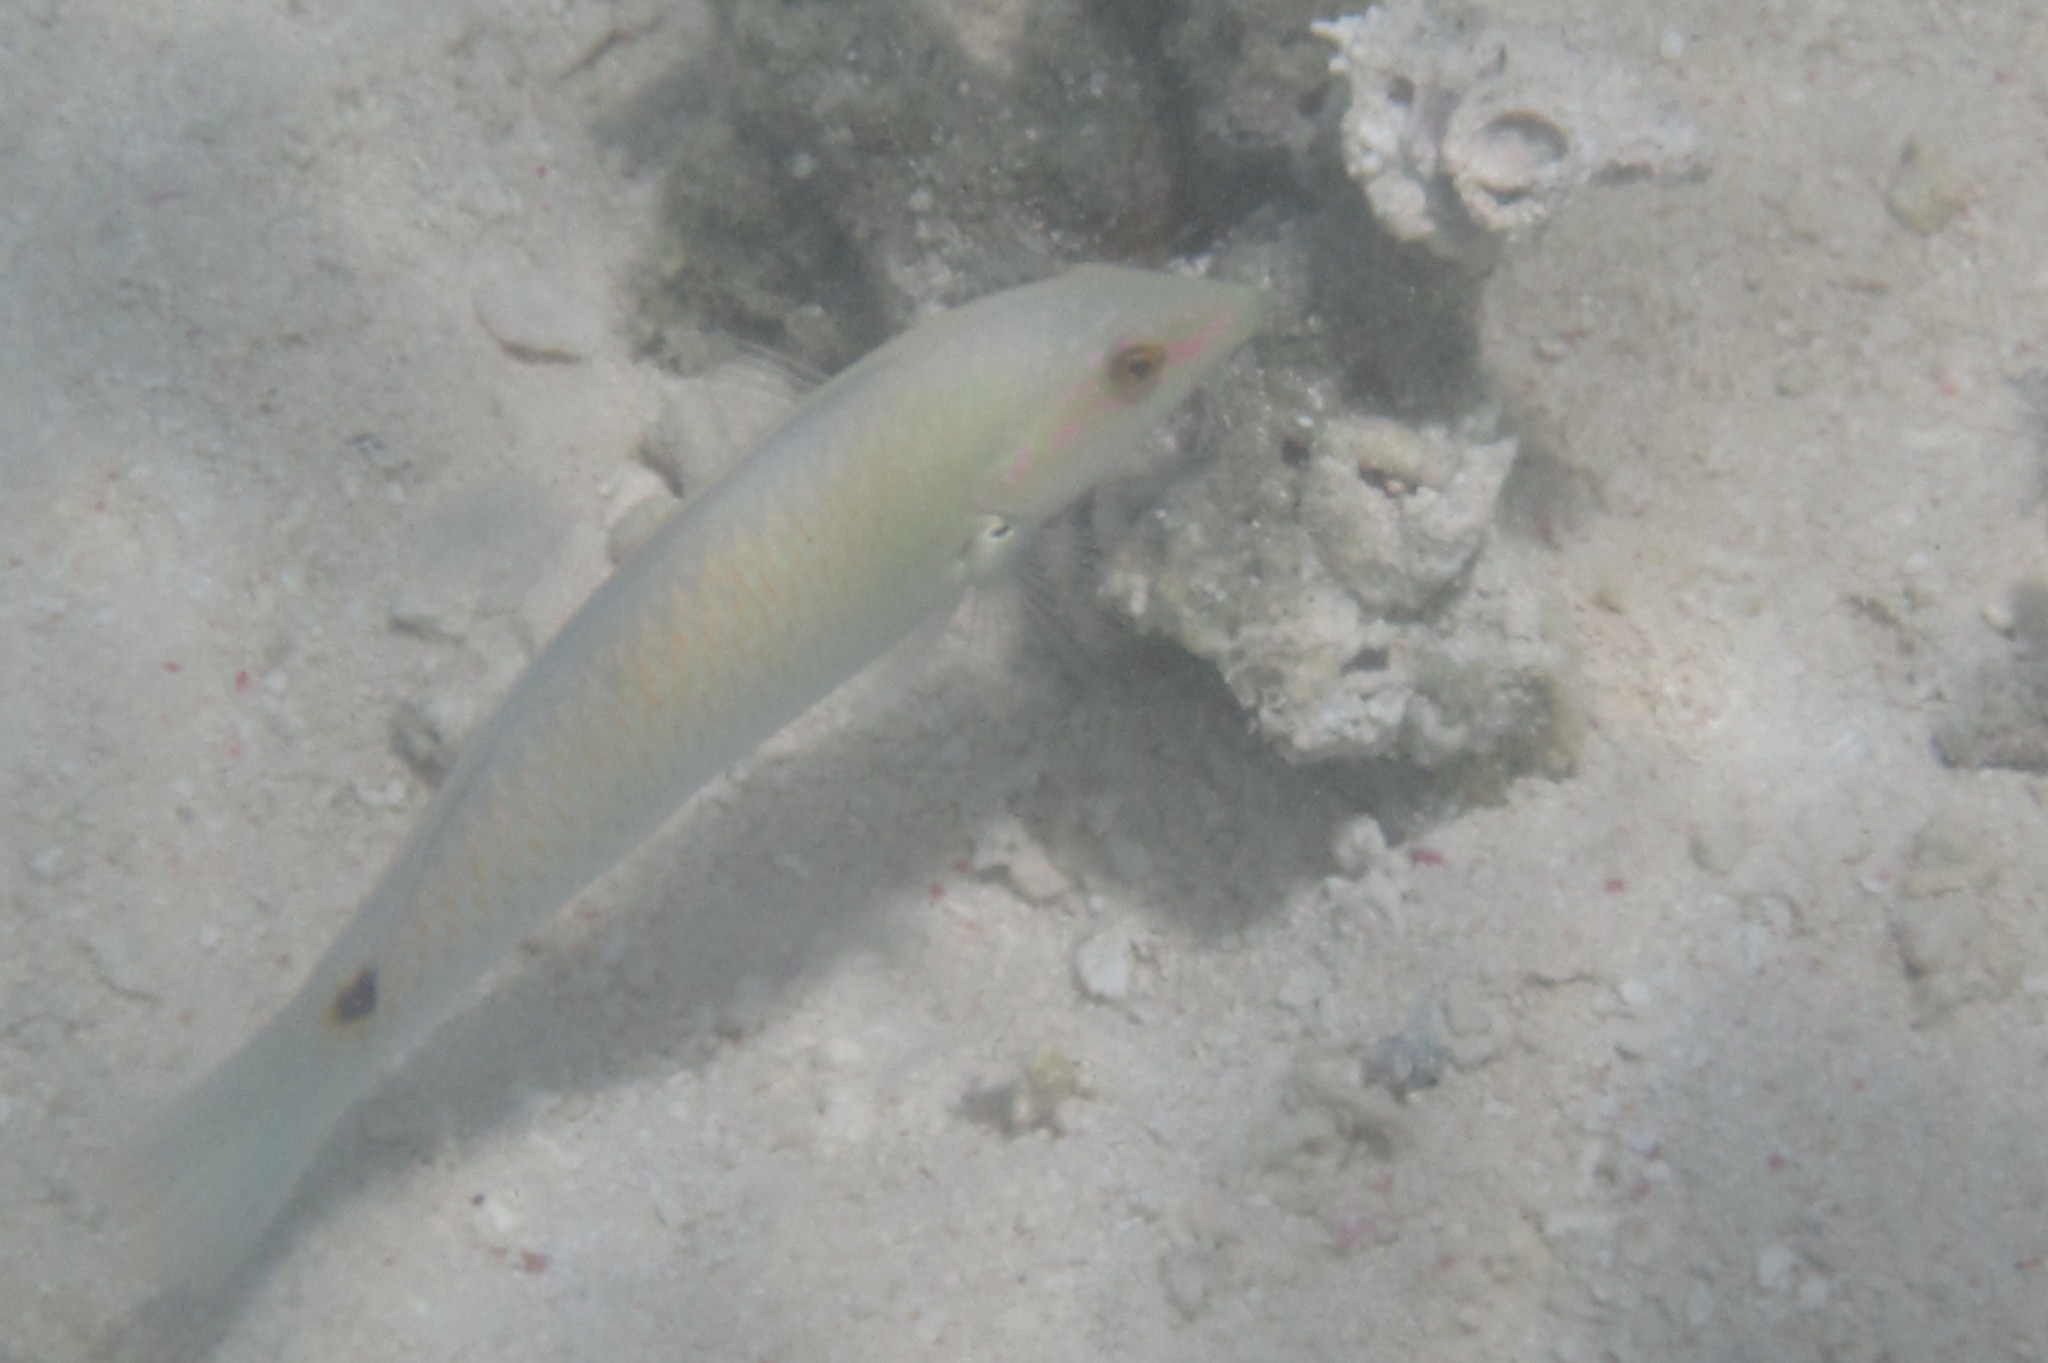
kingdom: Animalia
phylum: Chordata
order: Perciformes
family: Labridae
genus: Halichoeres
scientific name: Halichoeres trimaculatus
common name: Three-spot wrasse
